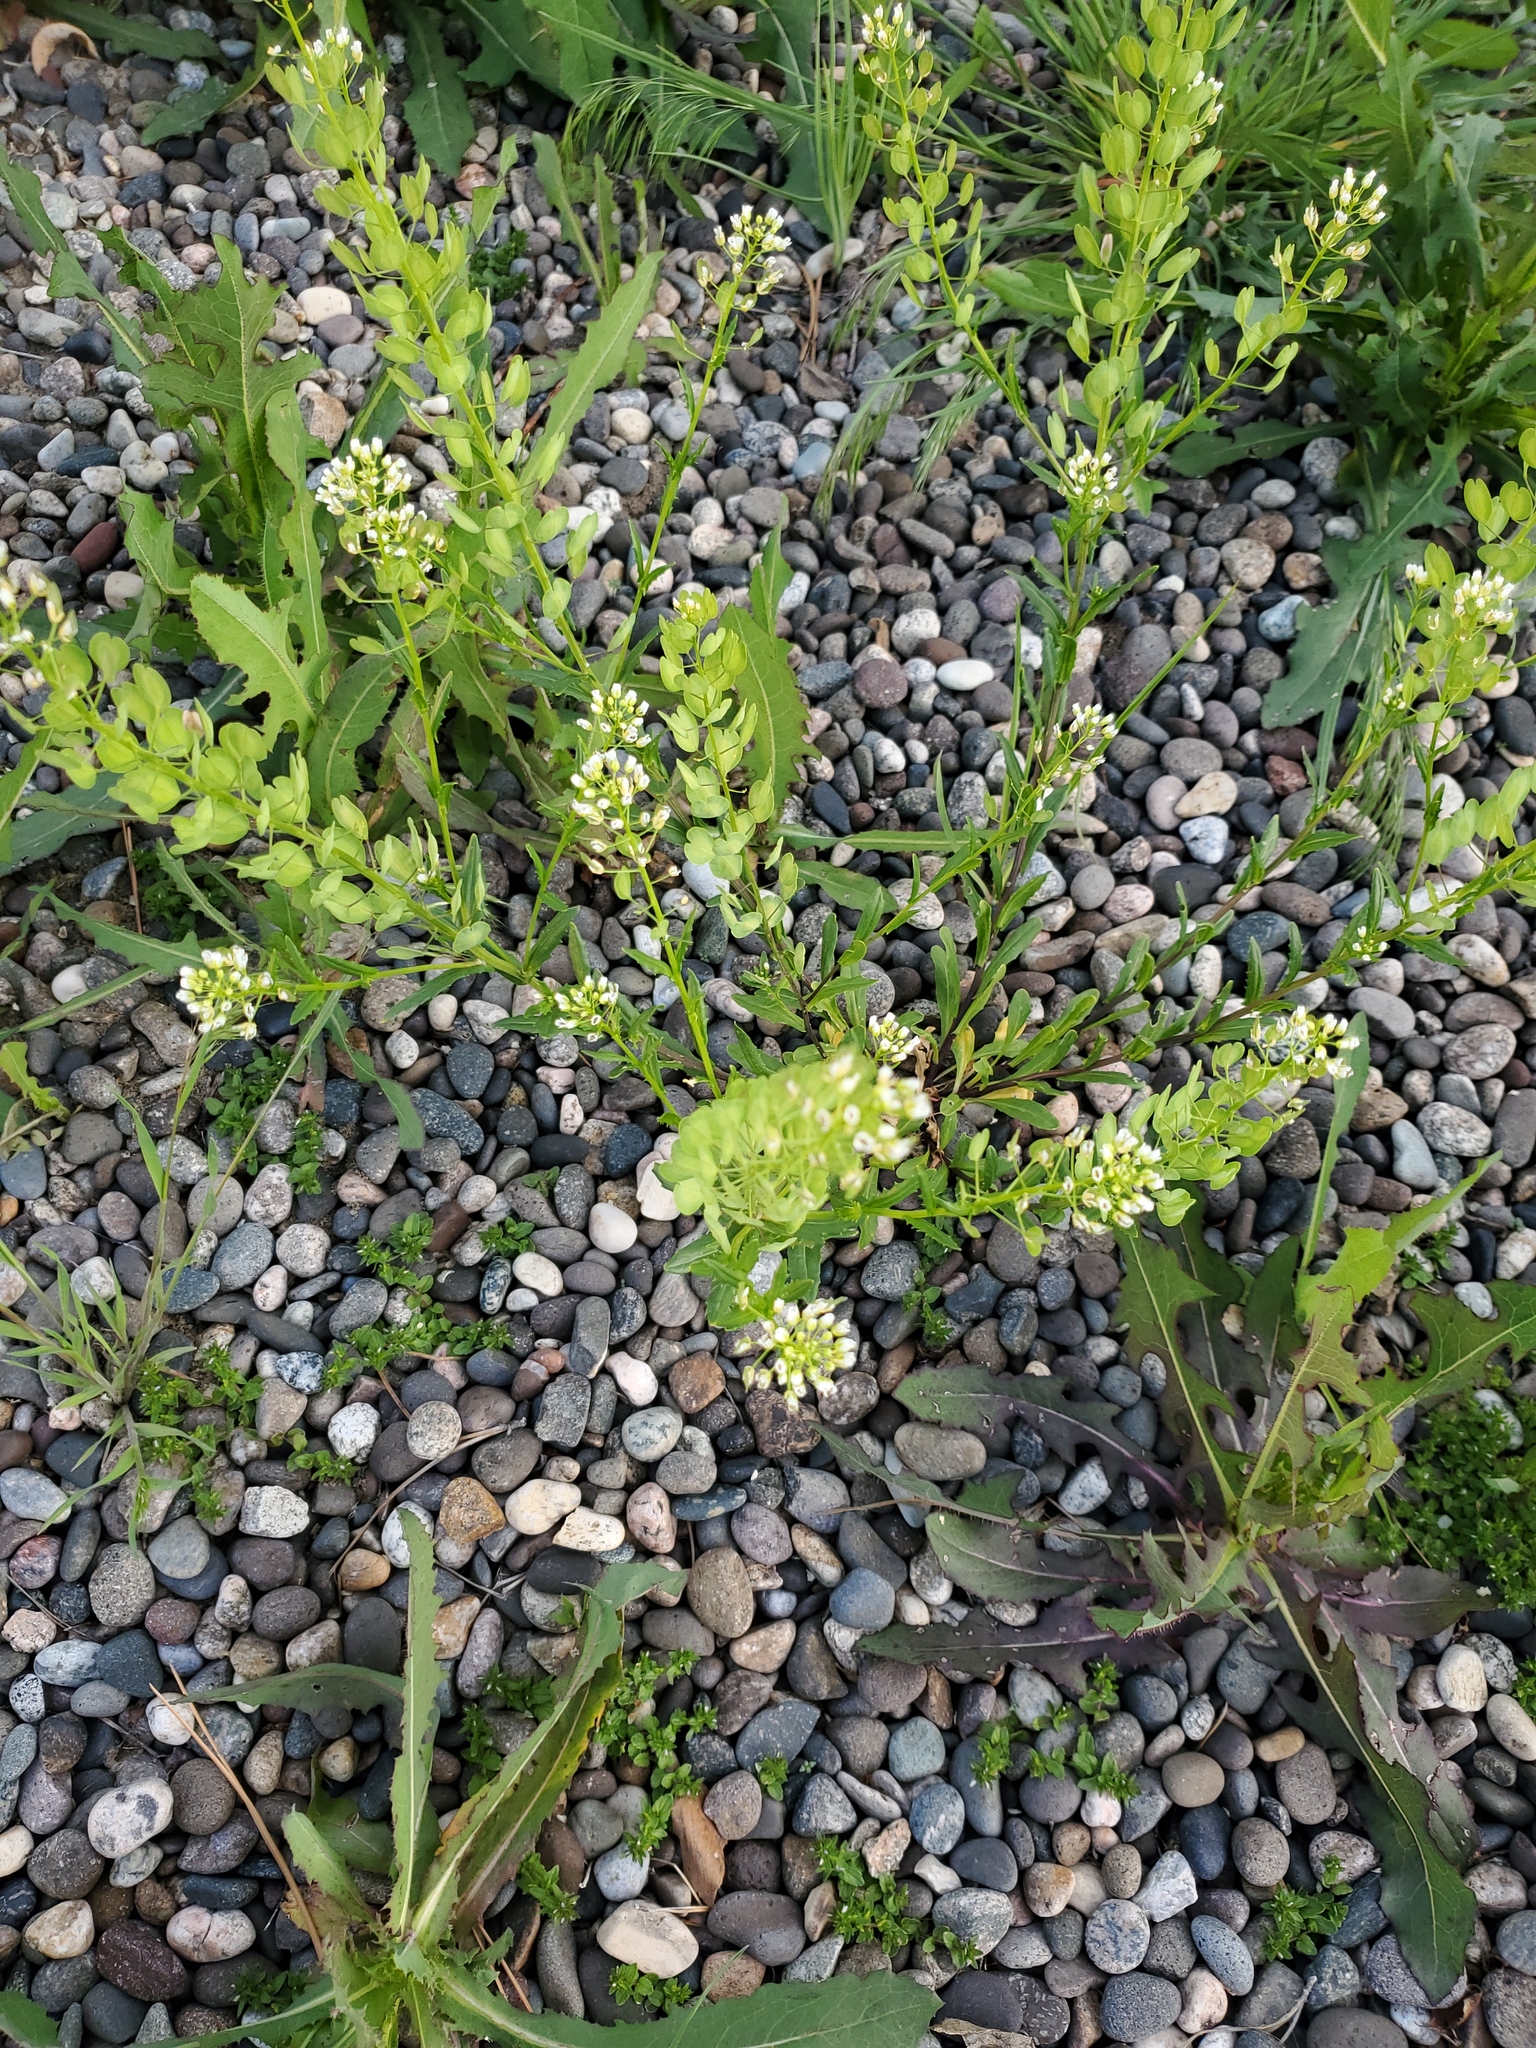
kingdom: Plantae
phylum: Tracheophyta
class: Magnoliopsida
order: Brassicales
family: Brassicaceae
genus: Thlaspi
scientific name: Thlaspi arvense
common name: Field pennycress
